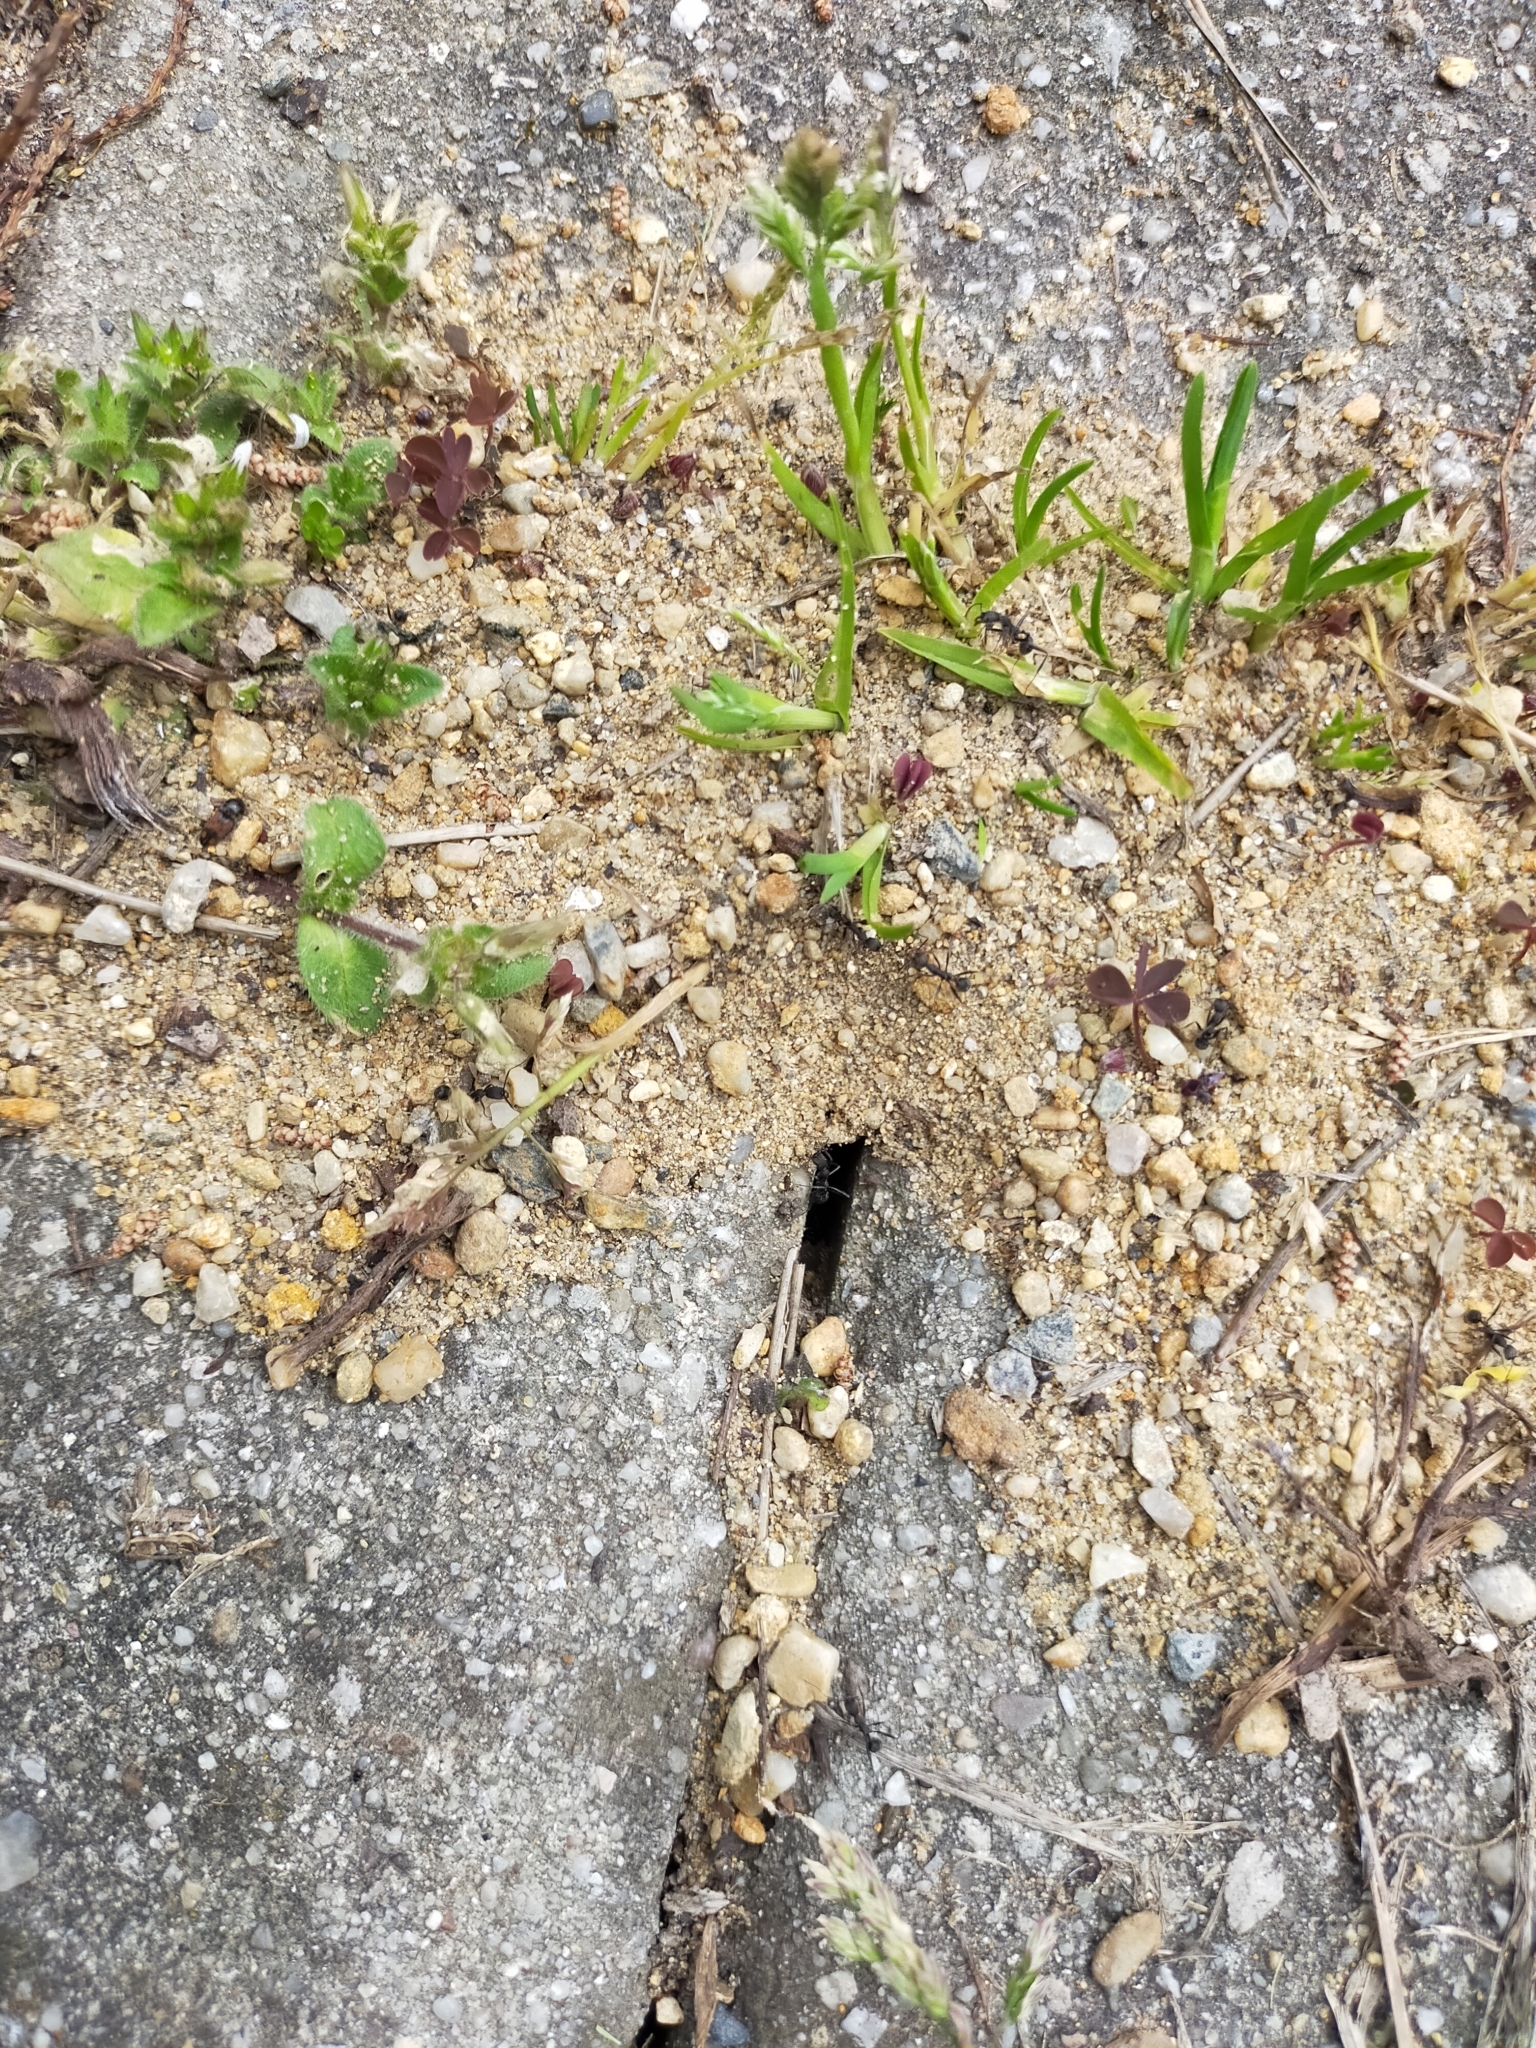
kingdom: Animalia
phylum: Arthropoda
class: Insecta
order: Hymenoptera
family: Formicidae
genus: Aphaenogaster
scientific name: Aphaenogaster
